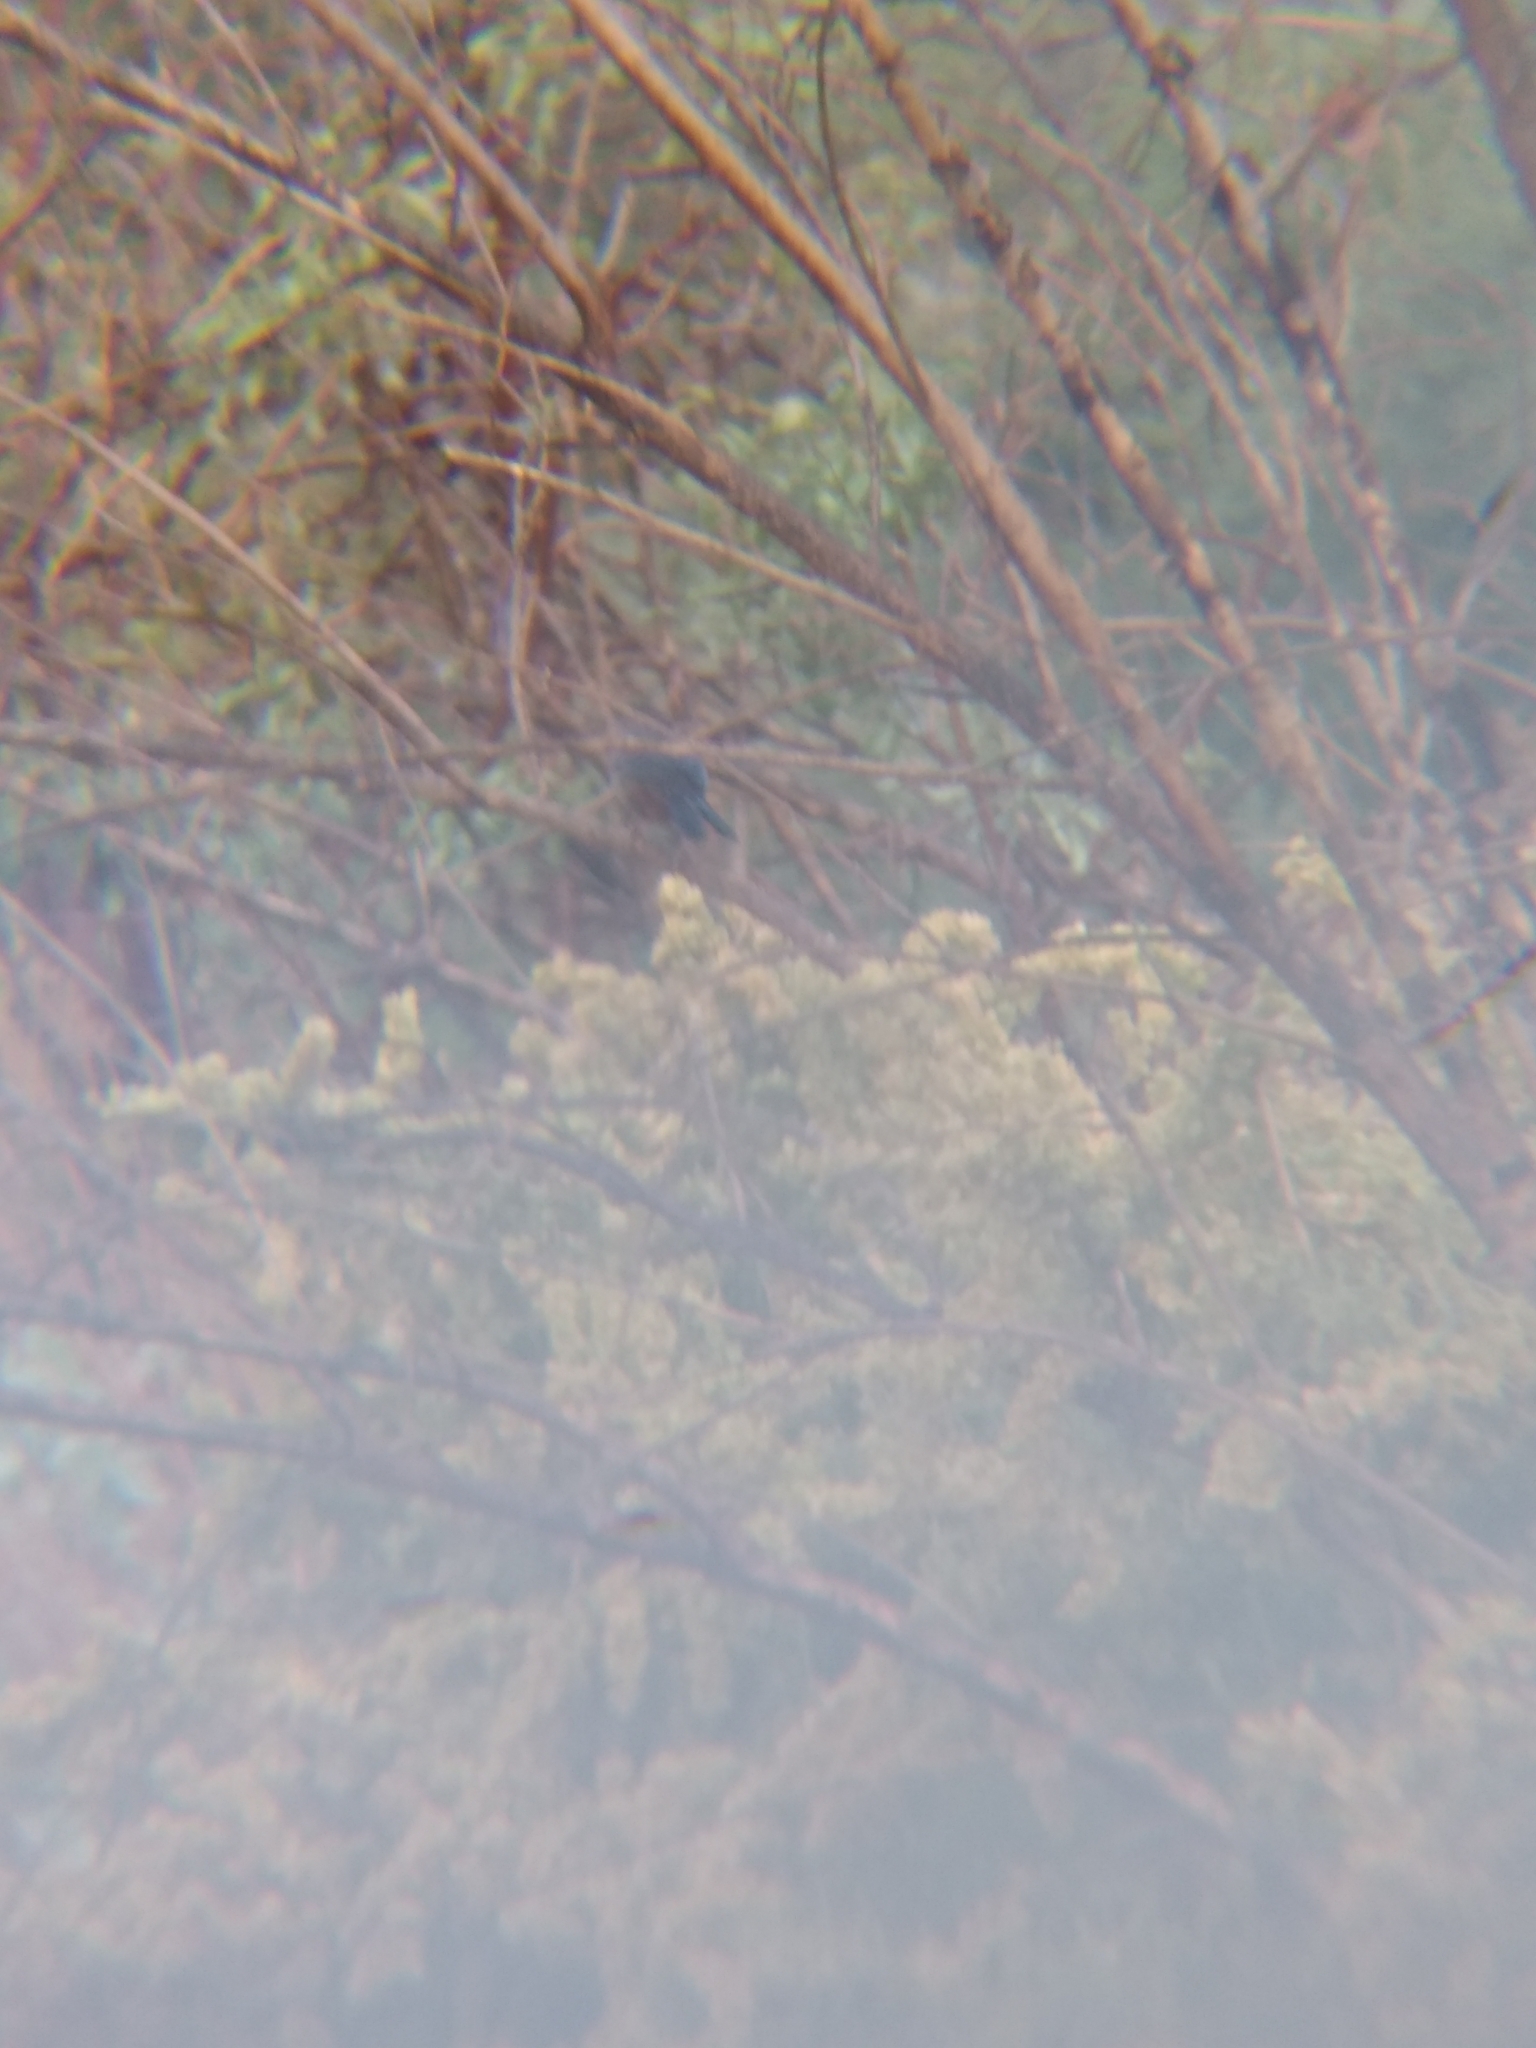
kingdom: Animalia
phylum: Chordata
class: Aves
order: Passeriformes
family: Turdidae
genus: Sialia
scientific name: Sialia mexicana
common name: Western bluebird
